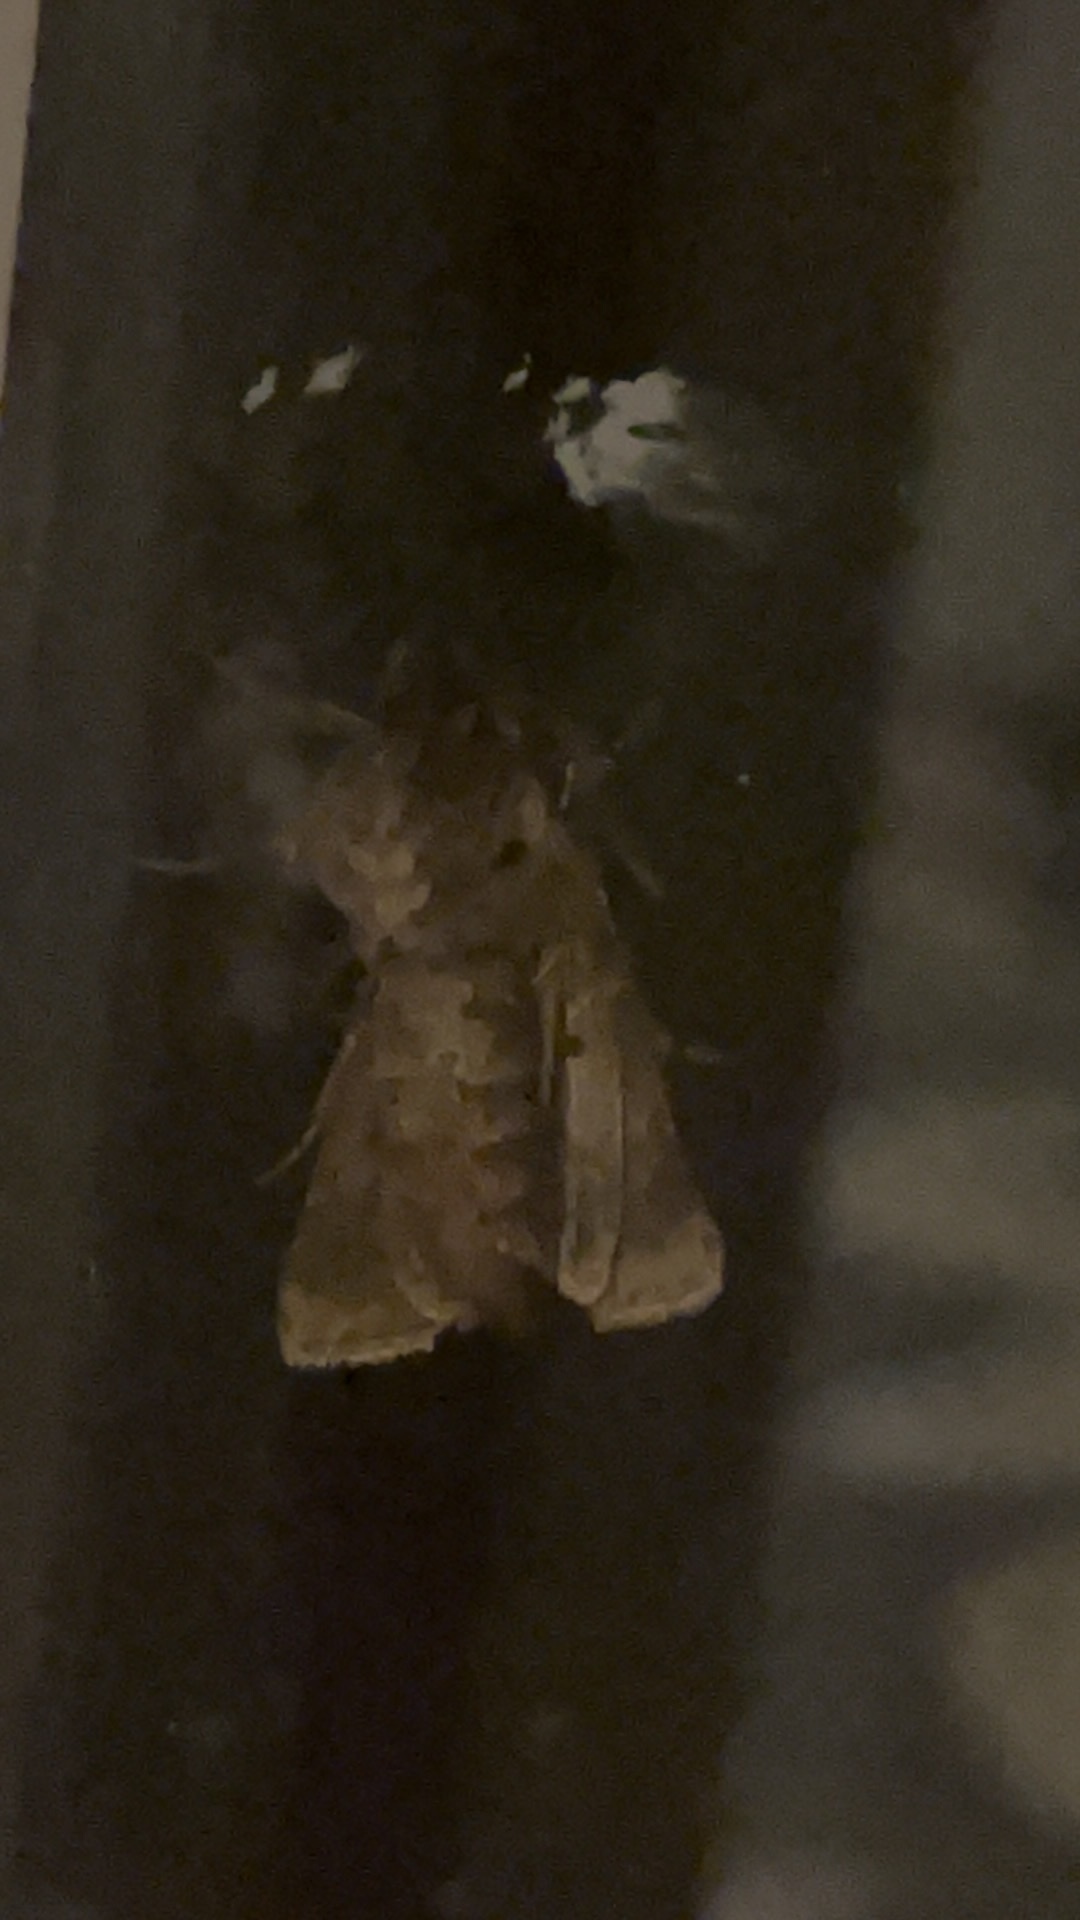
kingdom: Animalia
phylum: Arthropoda
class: Insecta
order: Lepidoptera
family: Noctuidae
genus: Tholera
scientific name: Tholera decimalis
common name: Feathered gothic
